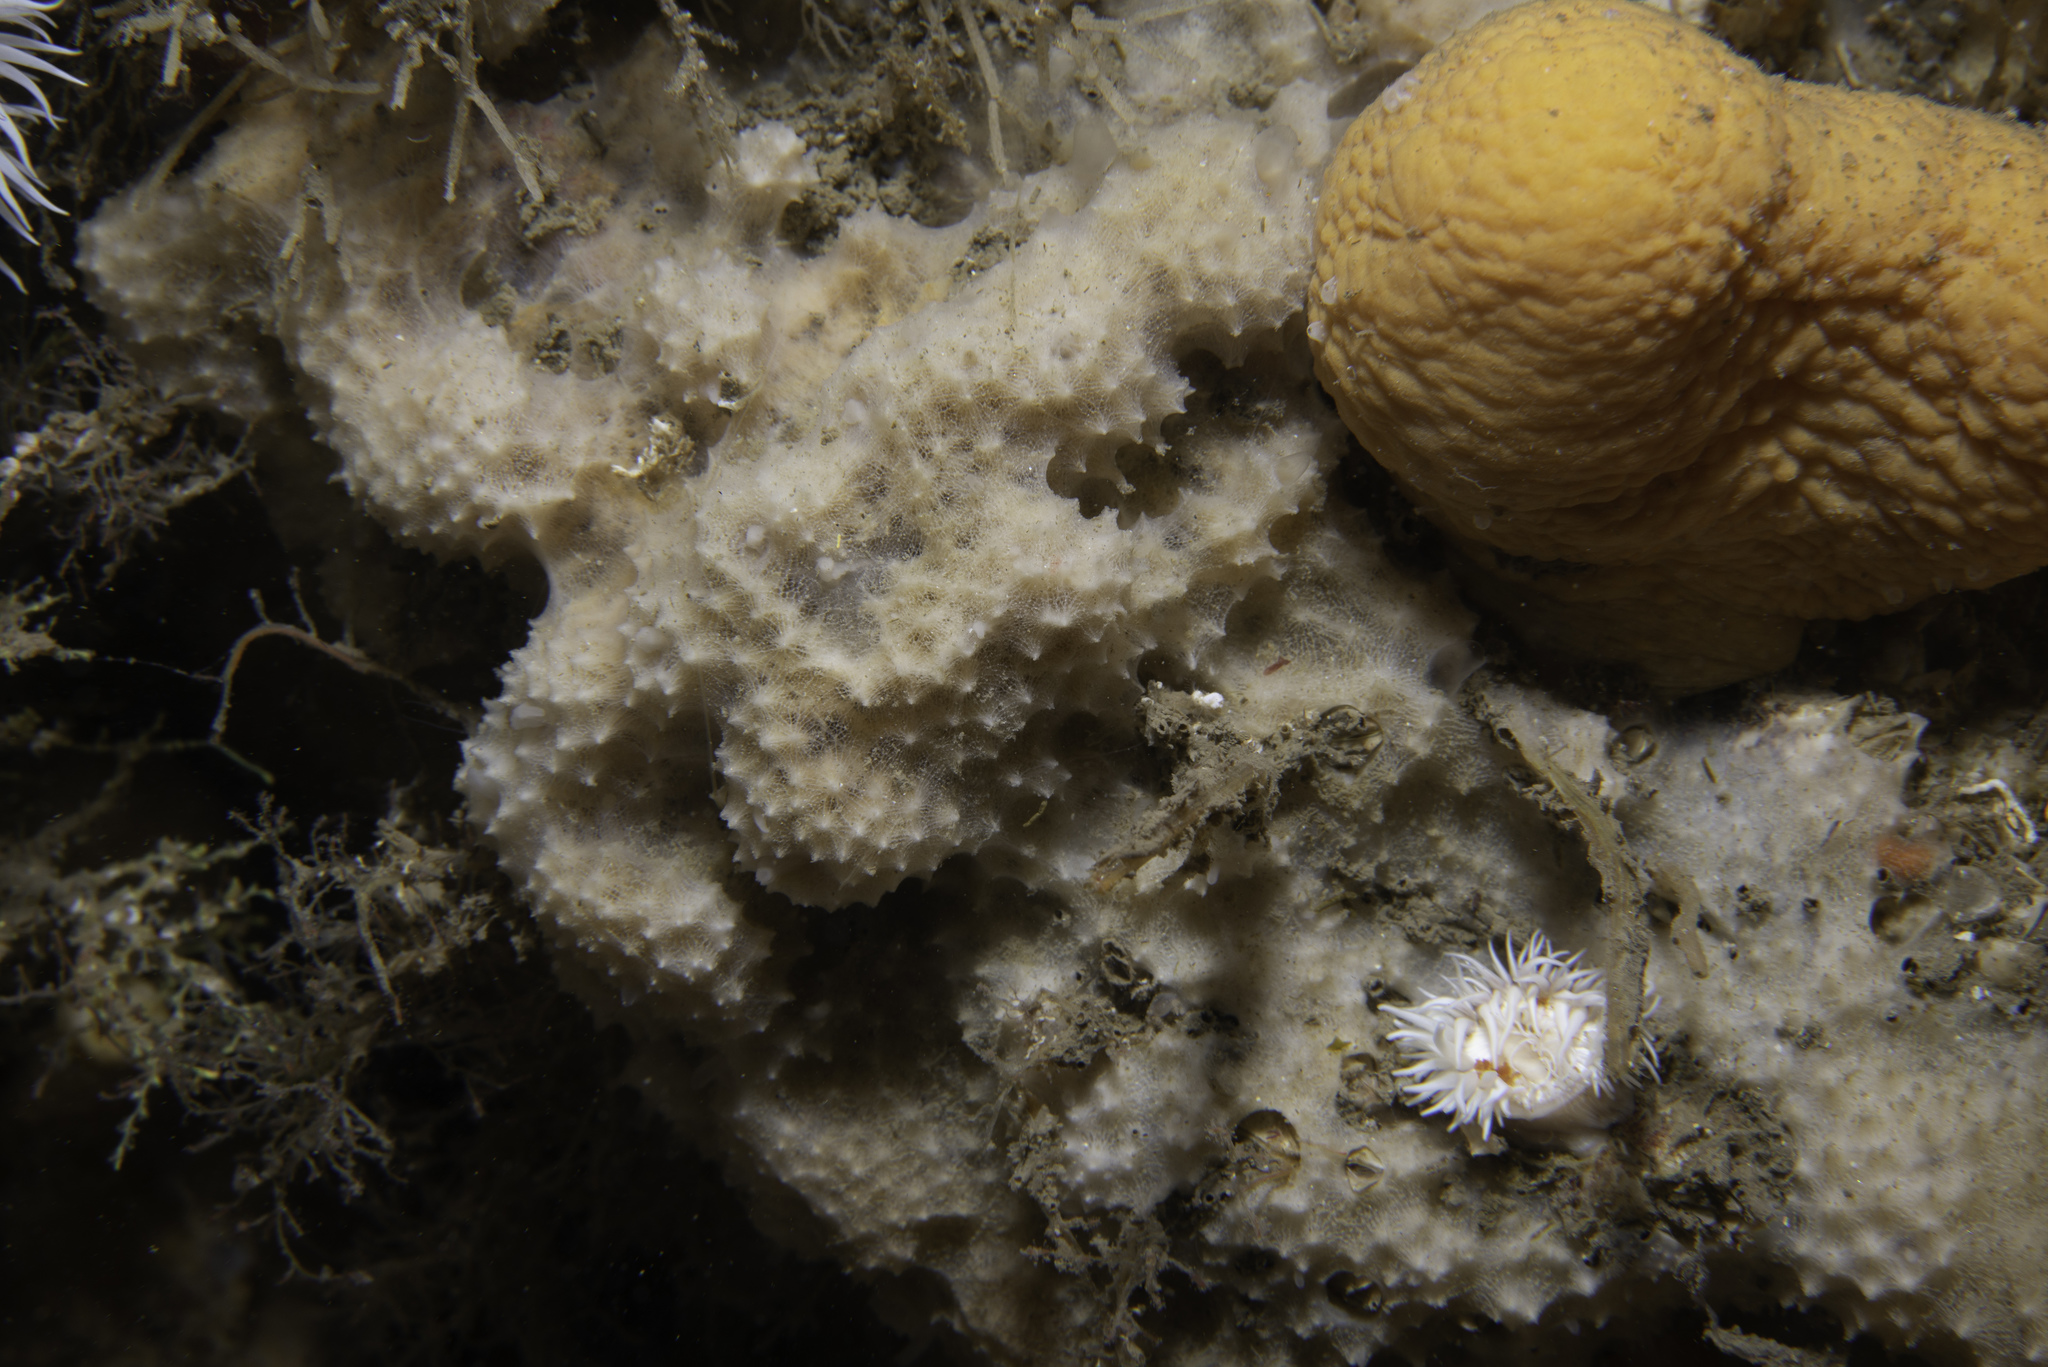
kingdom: Animalia
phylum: Porifera
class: Demospongiae
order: Dictyoceratida
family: Dysideidae
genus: Dysidea
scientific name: Dysidea fragilis
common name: Goosebump sponge
